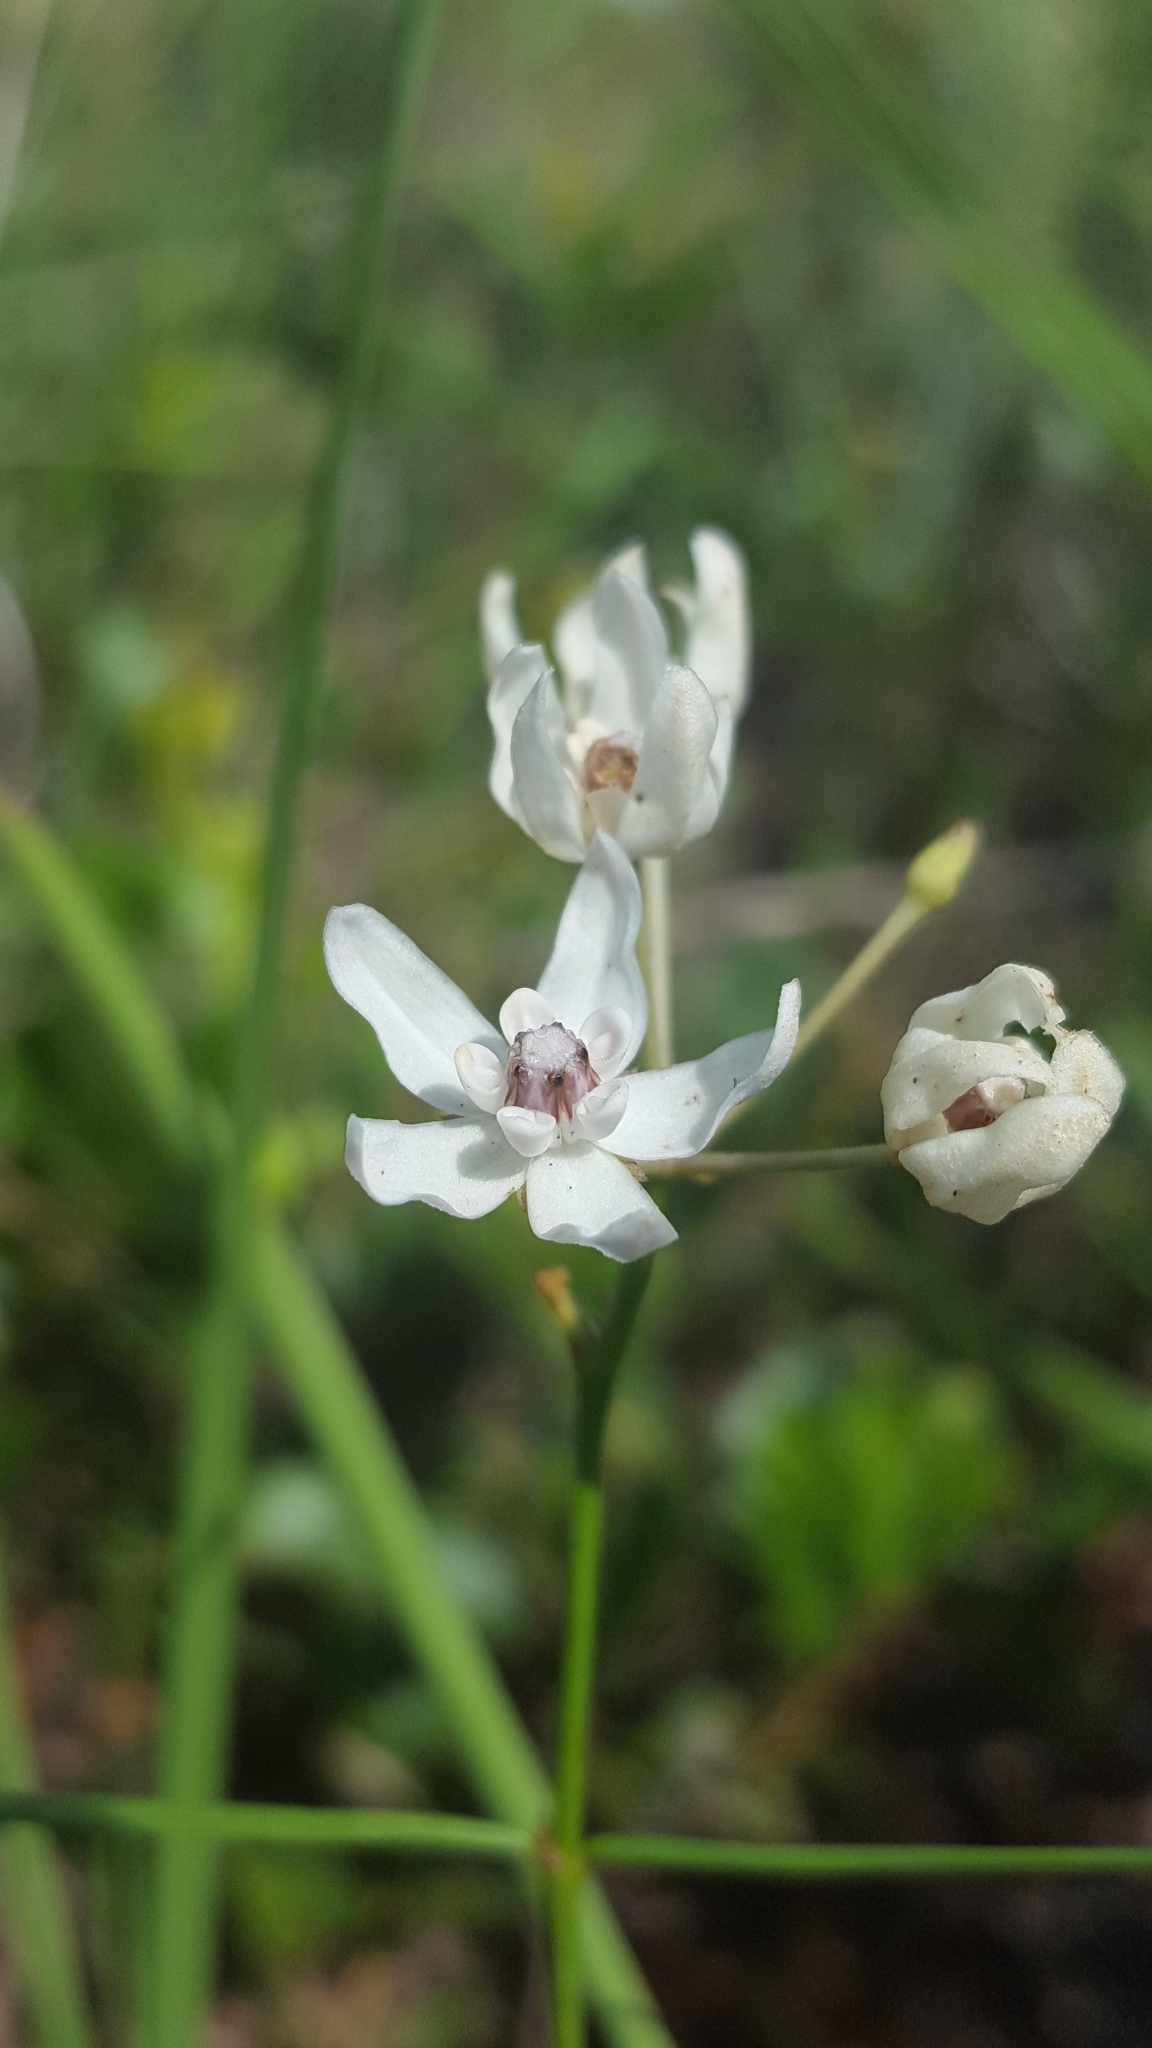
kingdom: Plantae
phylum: Tracheophyta
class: Magnoliopsida
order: Gentianales
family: Apocynaceae
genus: Asclepias
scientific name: Asclepias feayi
